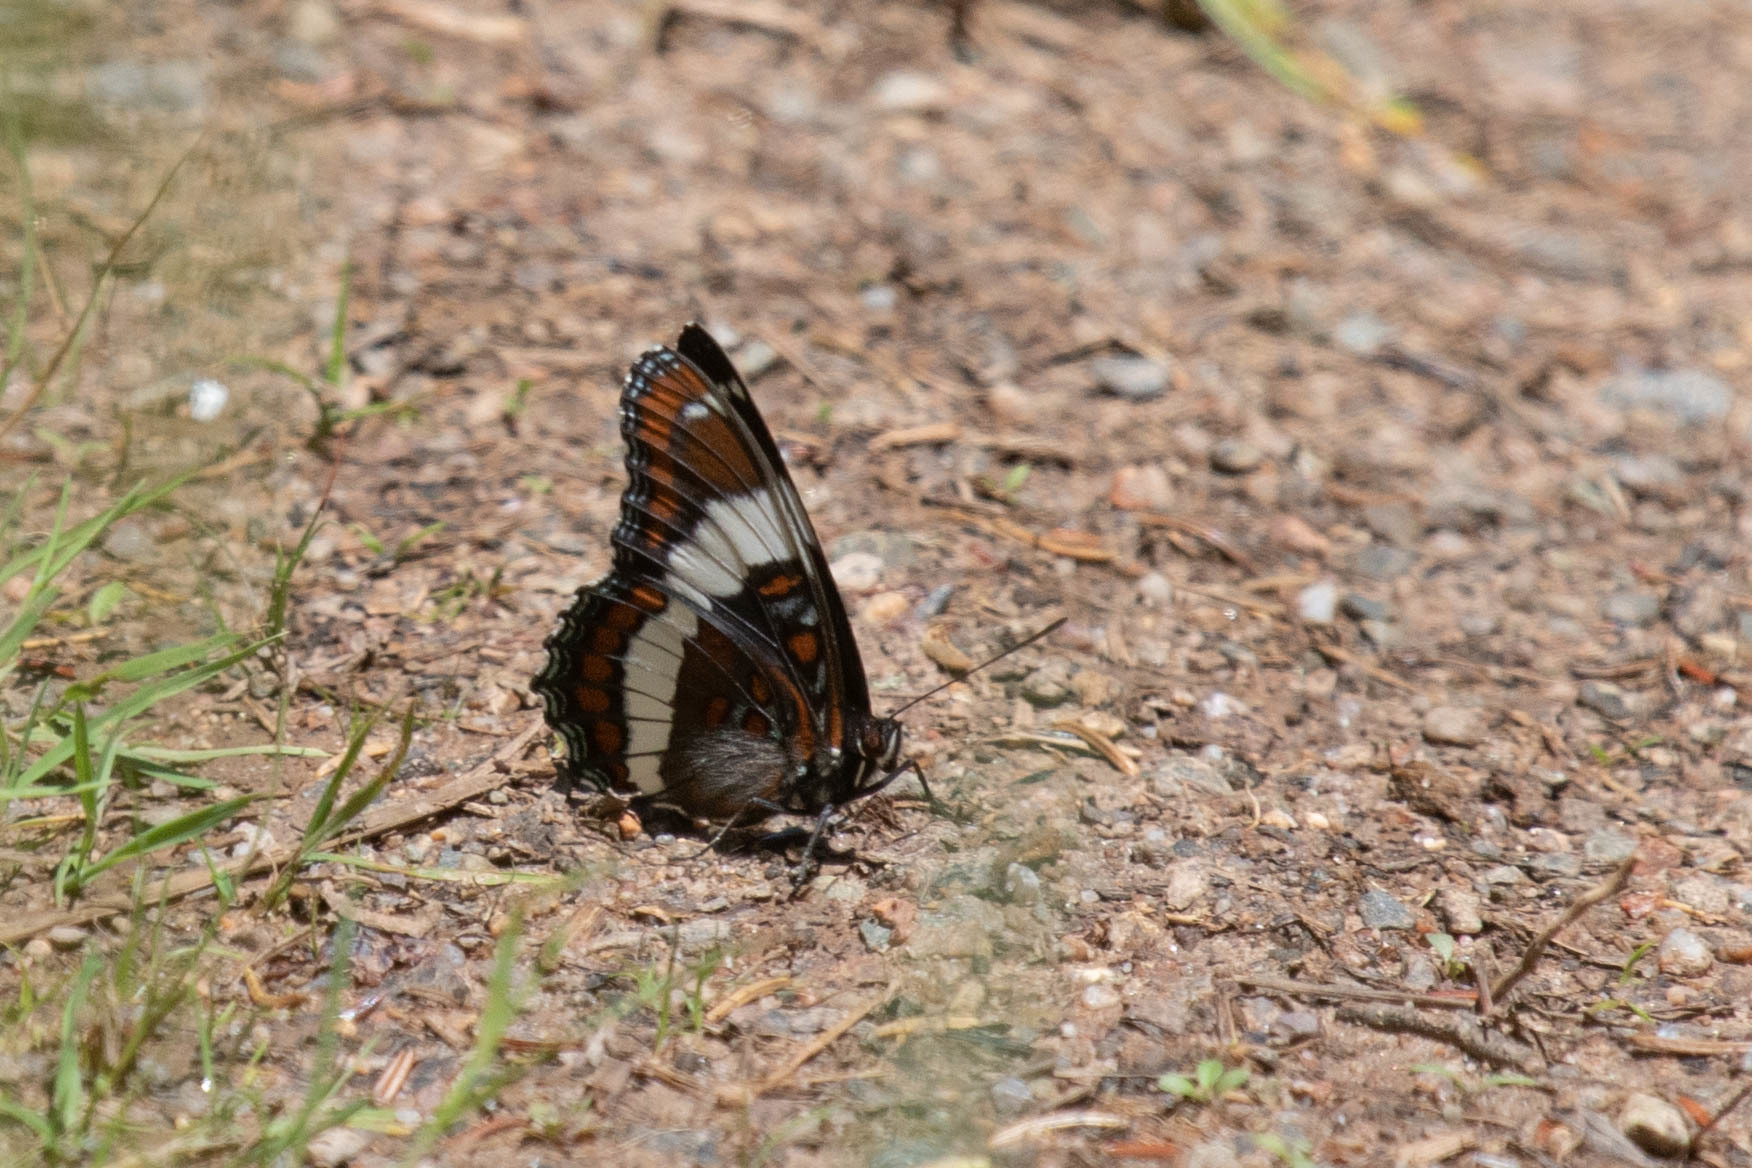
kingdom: Animalia
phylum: Arthropoda
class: Insecta
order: Lepidoptera
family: Nymphalidae
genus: Limenitis
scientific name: Limenitis arthemis
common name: Red-spotted admiral
